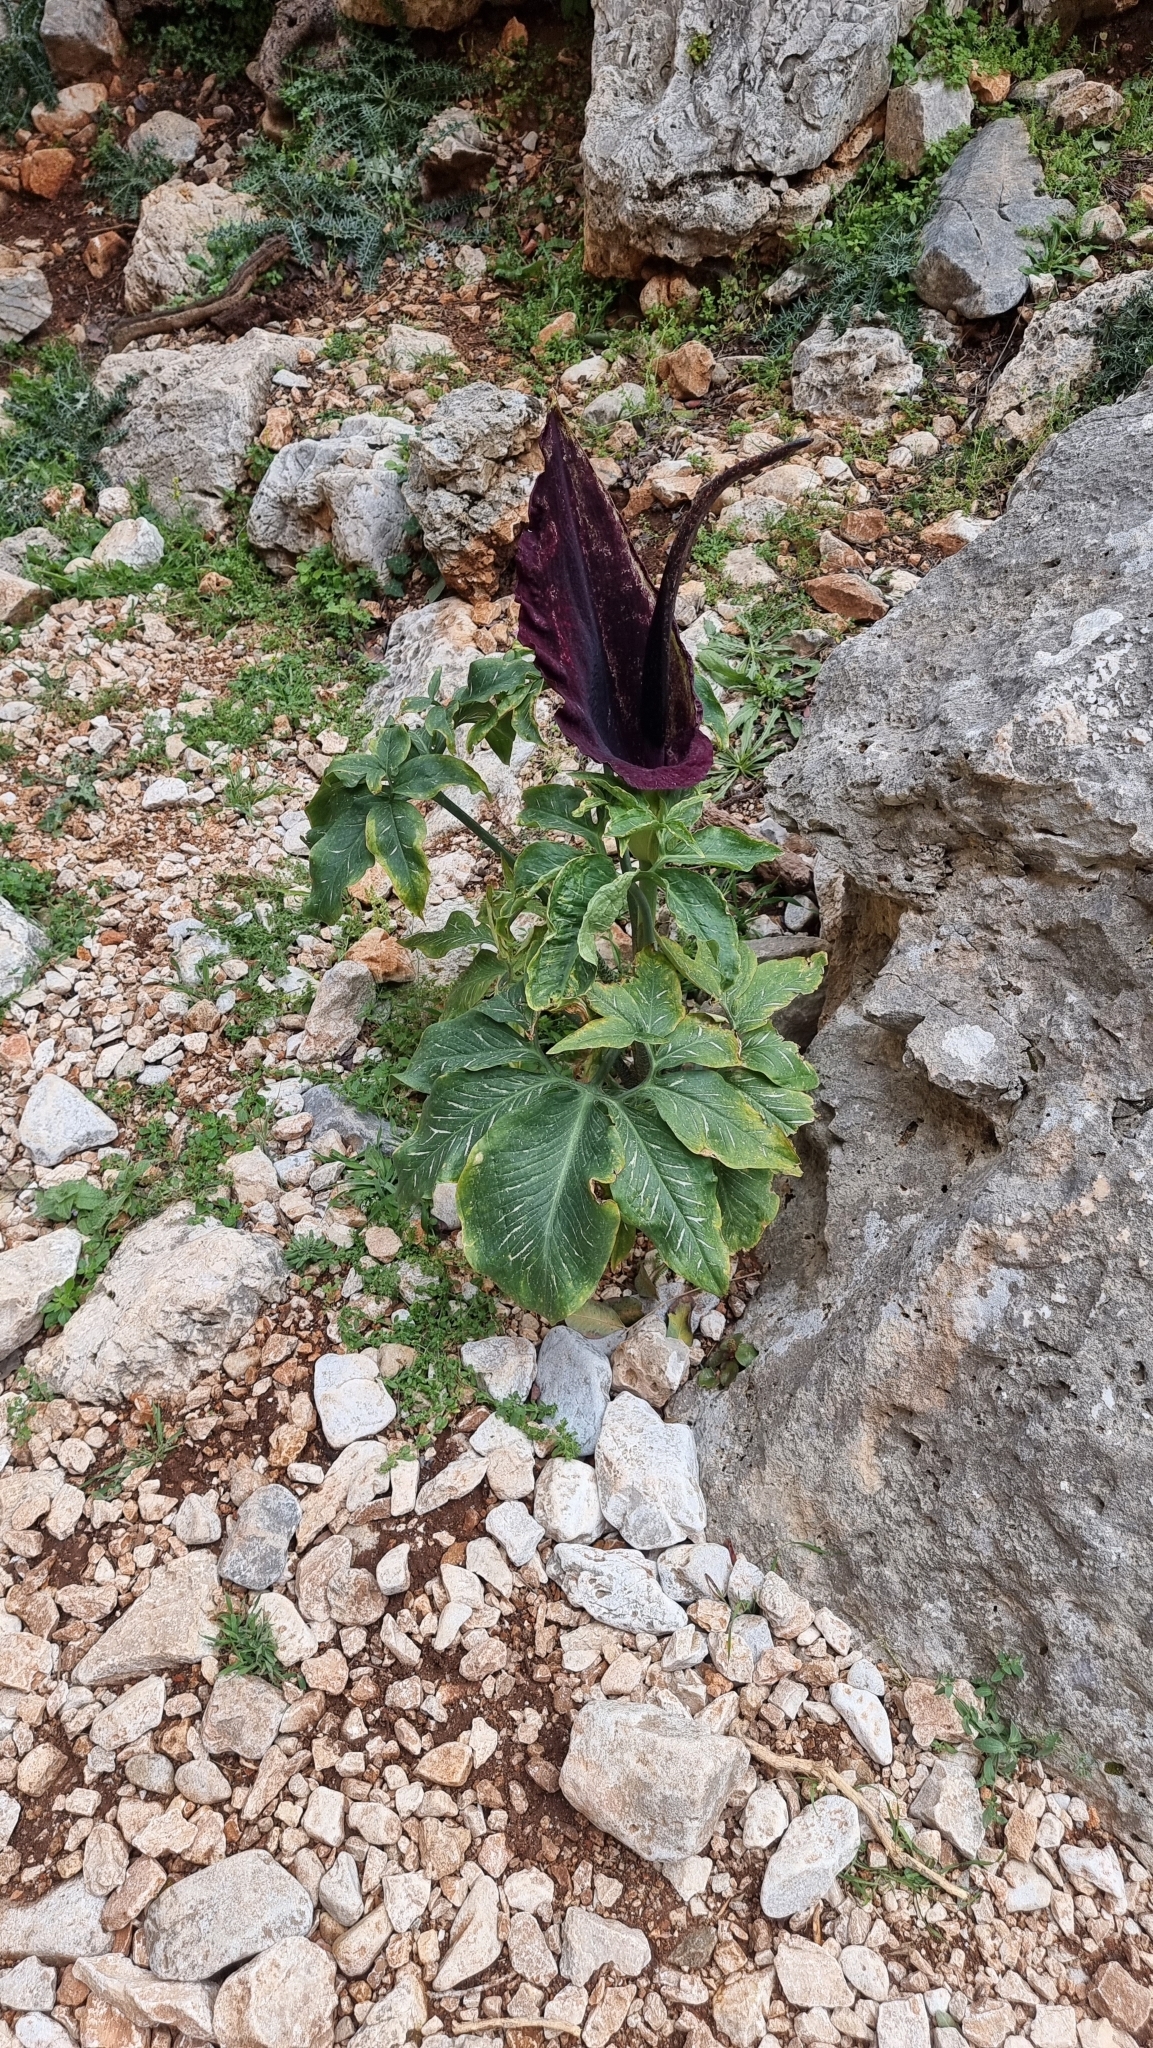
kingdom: Plantae
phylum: Tracheophyta
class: Liliopsida
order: Alismatales
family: Araceae
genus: Dracunculus
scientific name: Dracunculus vulgaris
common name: Dragon arum
